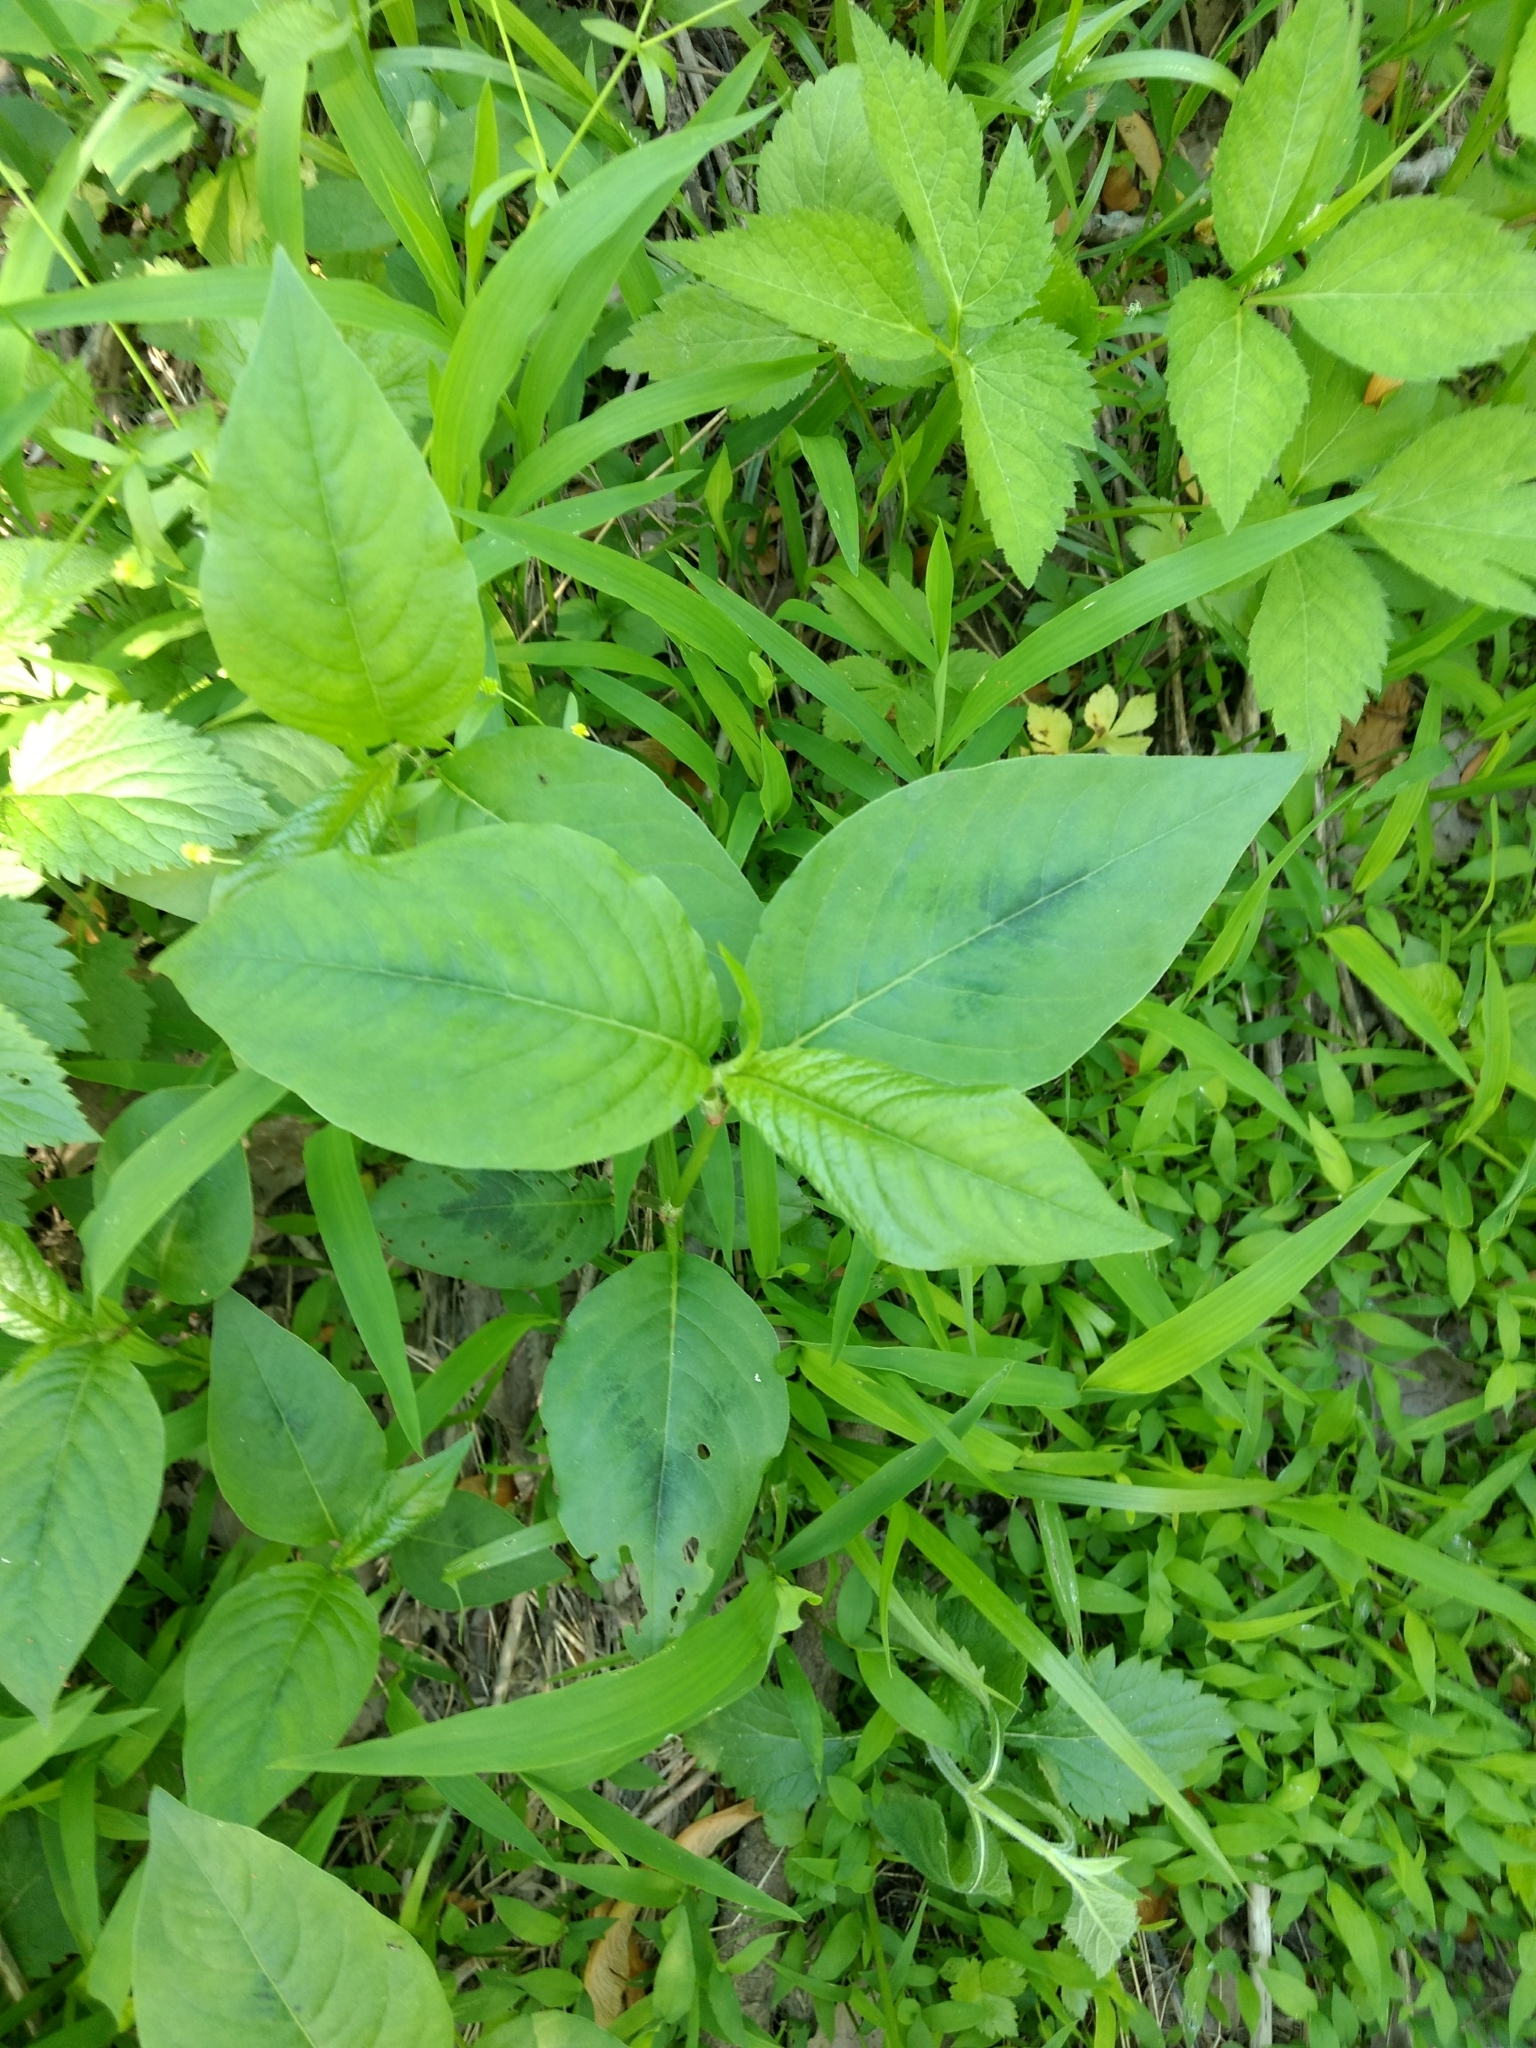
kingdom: Plantae
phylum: Tracheophyta
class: Magnoliopsida
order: Caryophyllales
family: Polygonaceae
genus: Persicaria
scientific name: Persicaria virginiana
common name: Jumpseed
